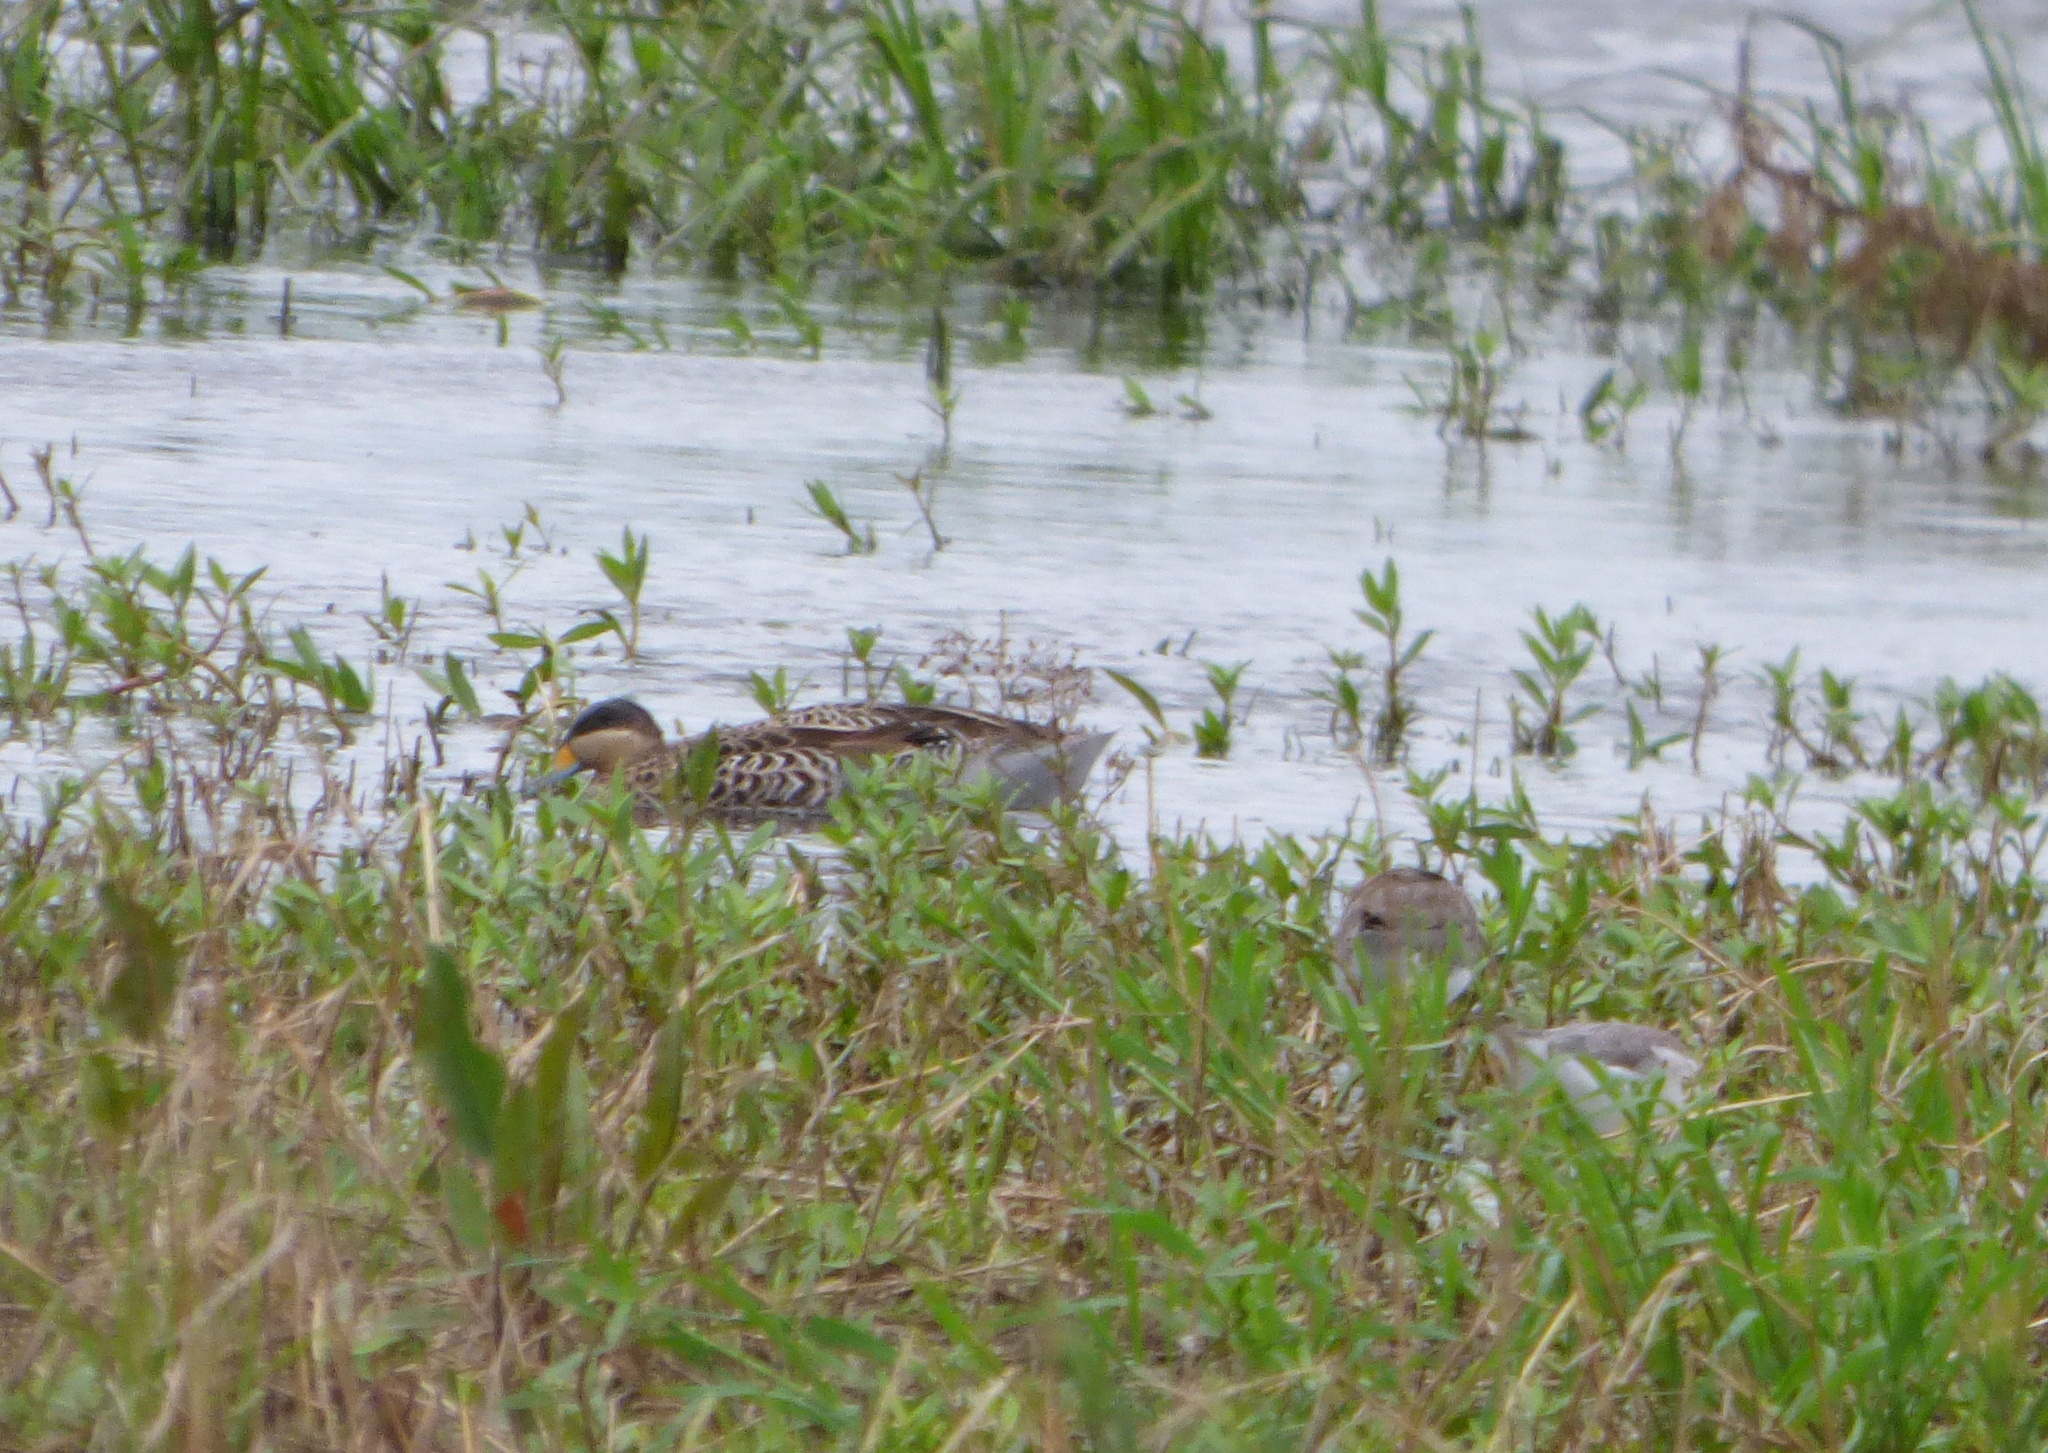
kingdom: Animalia
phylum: Chordata
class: Aves
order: Anseriformes
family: Anatidae
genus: Spatula
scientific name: Spatula versicolor
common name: Silver teal
